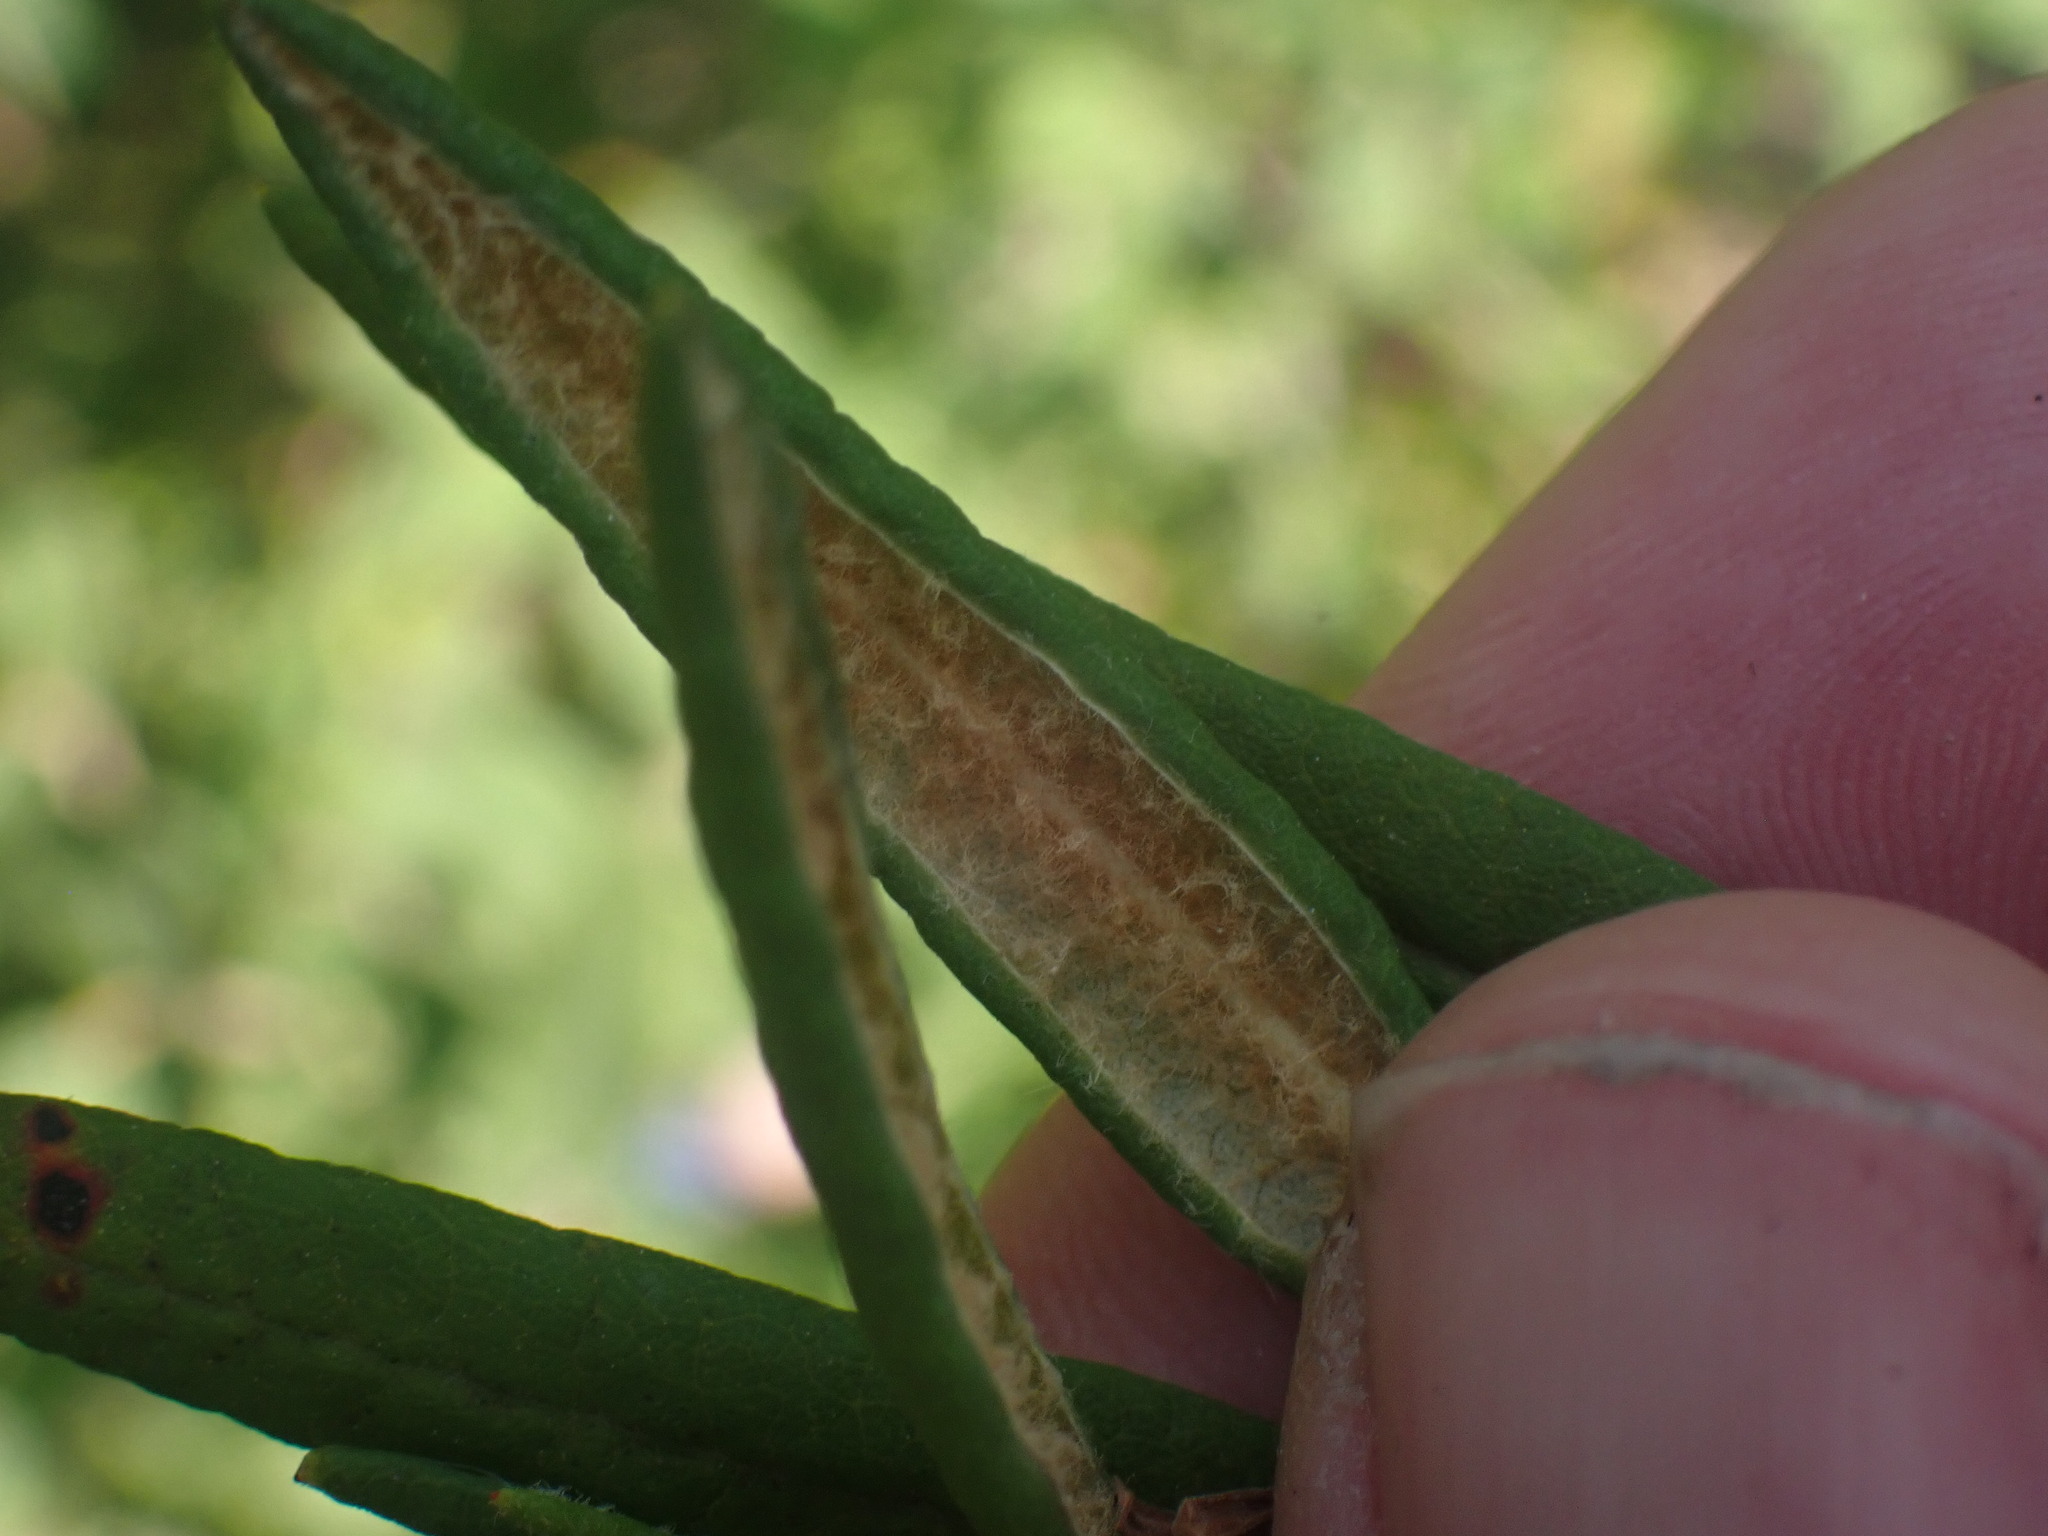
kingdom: Plantae
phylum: Tracheophyta
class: Magnoliopsida
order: Ericales
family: Ericaceae
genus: Rhododendron
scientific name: Rhododendron groenlandicum
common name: Bog labrador tea
